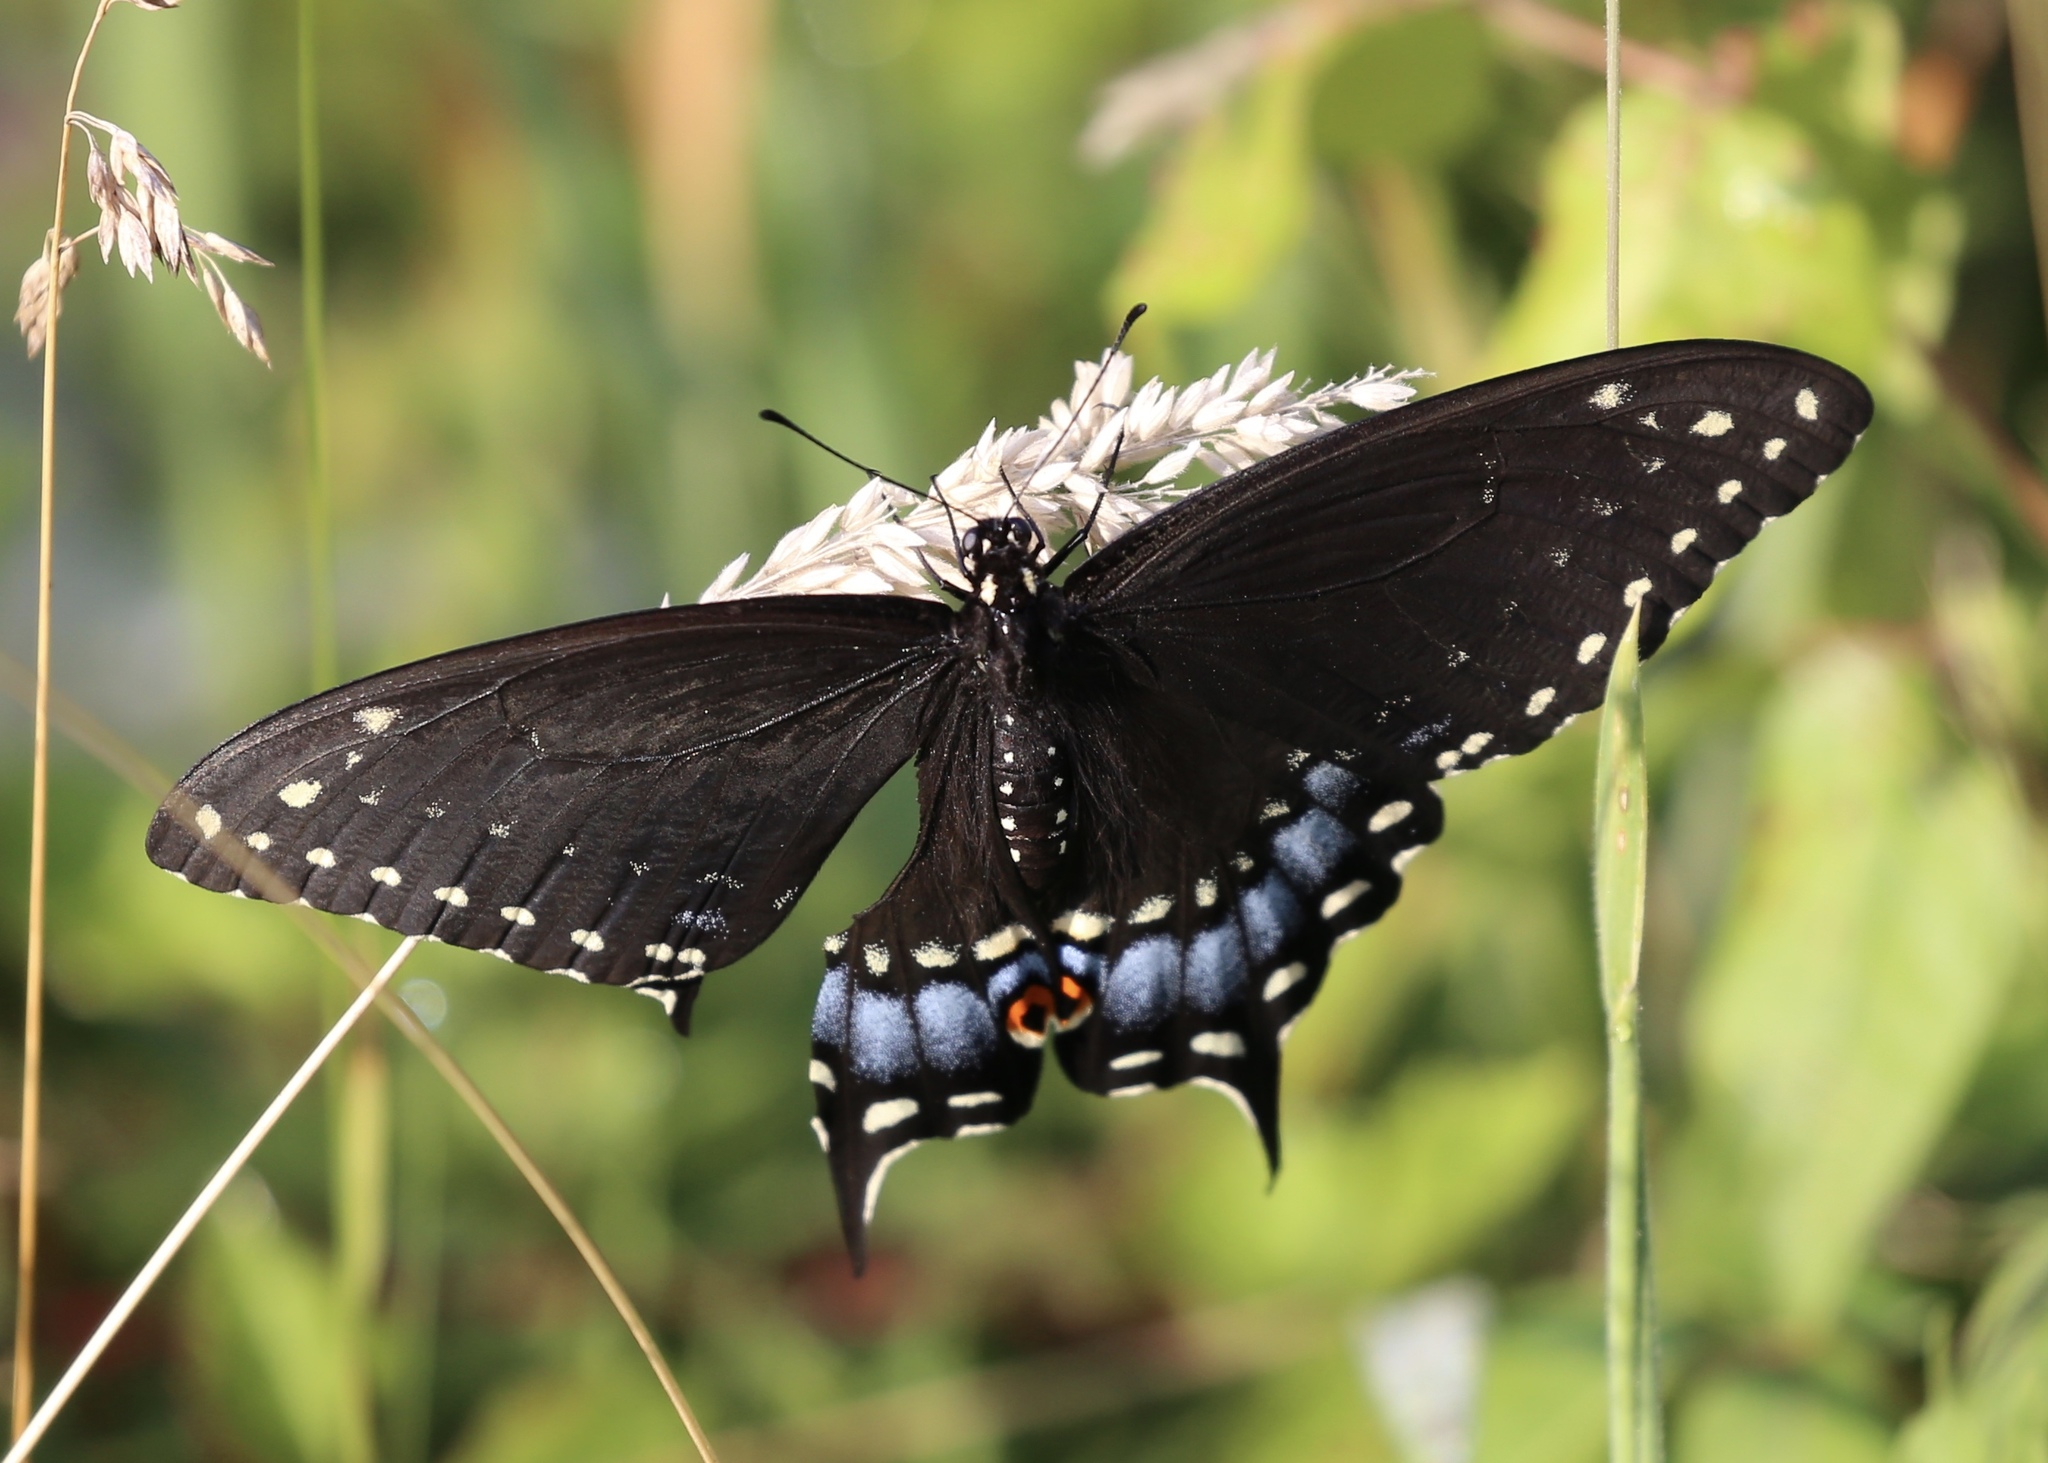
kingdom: Animalia
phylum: Arthropoda
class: Insecta
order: Lepidoptera
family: Papilionidae
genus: Papilio
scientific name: Papilio polyxenes
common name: Black swallowtail
